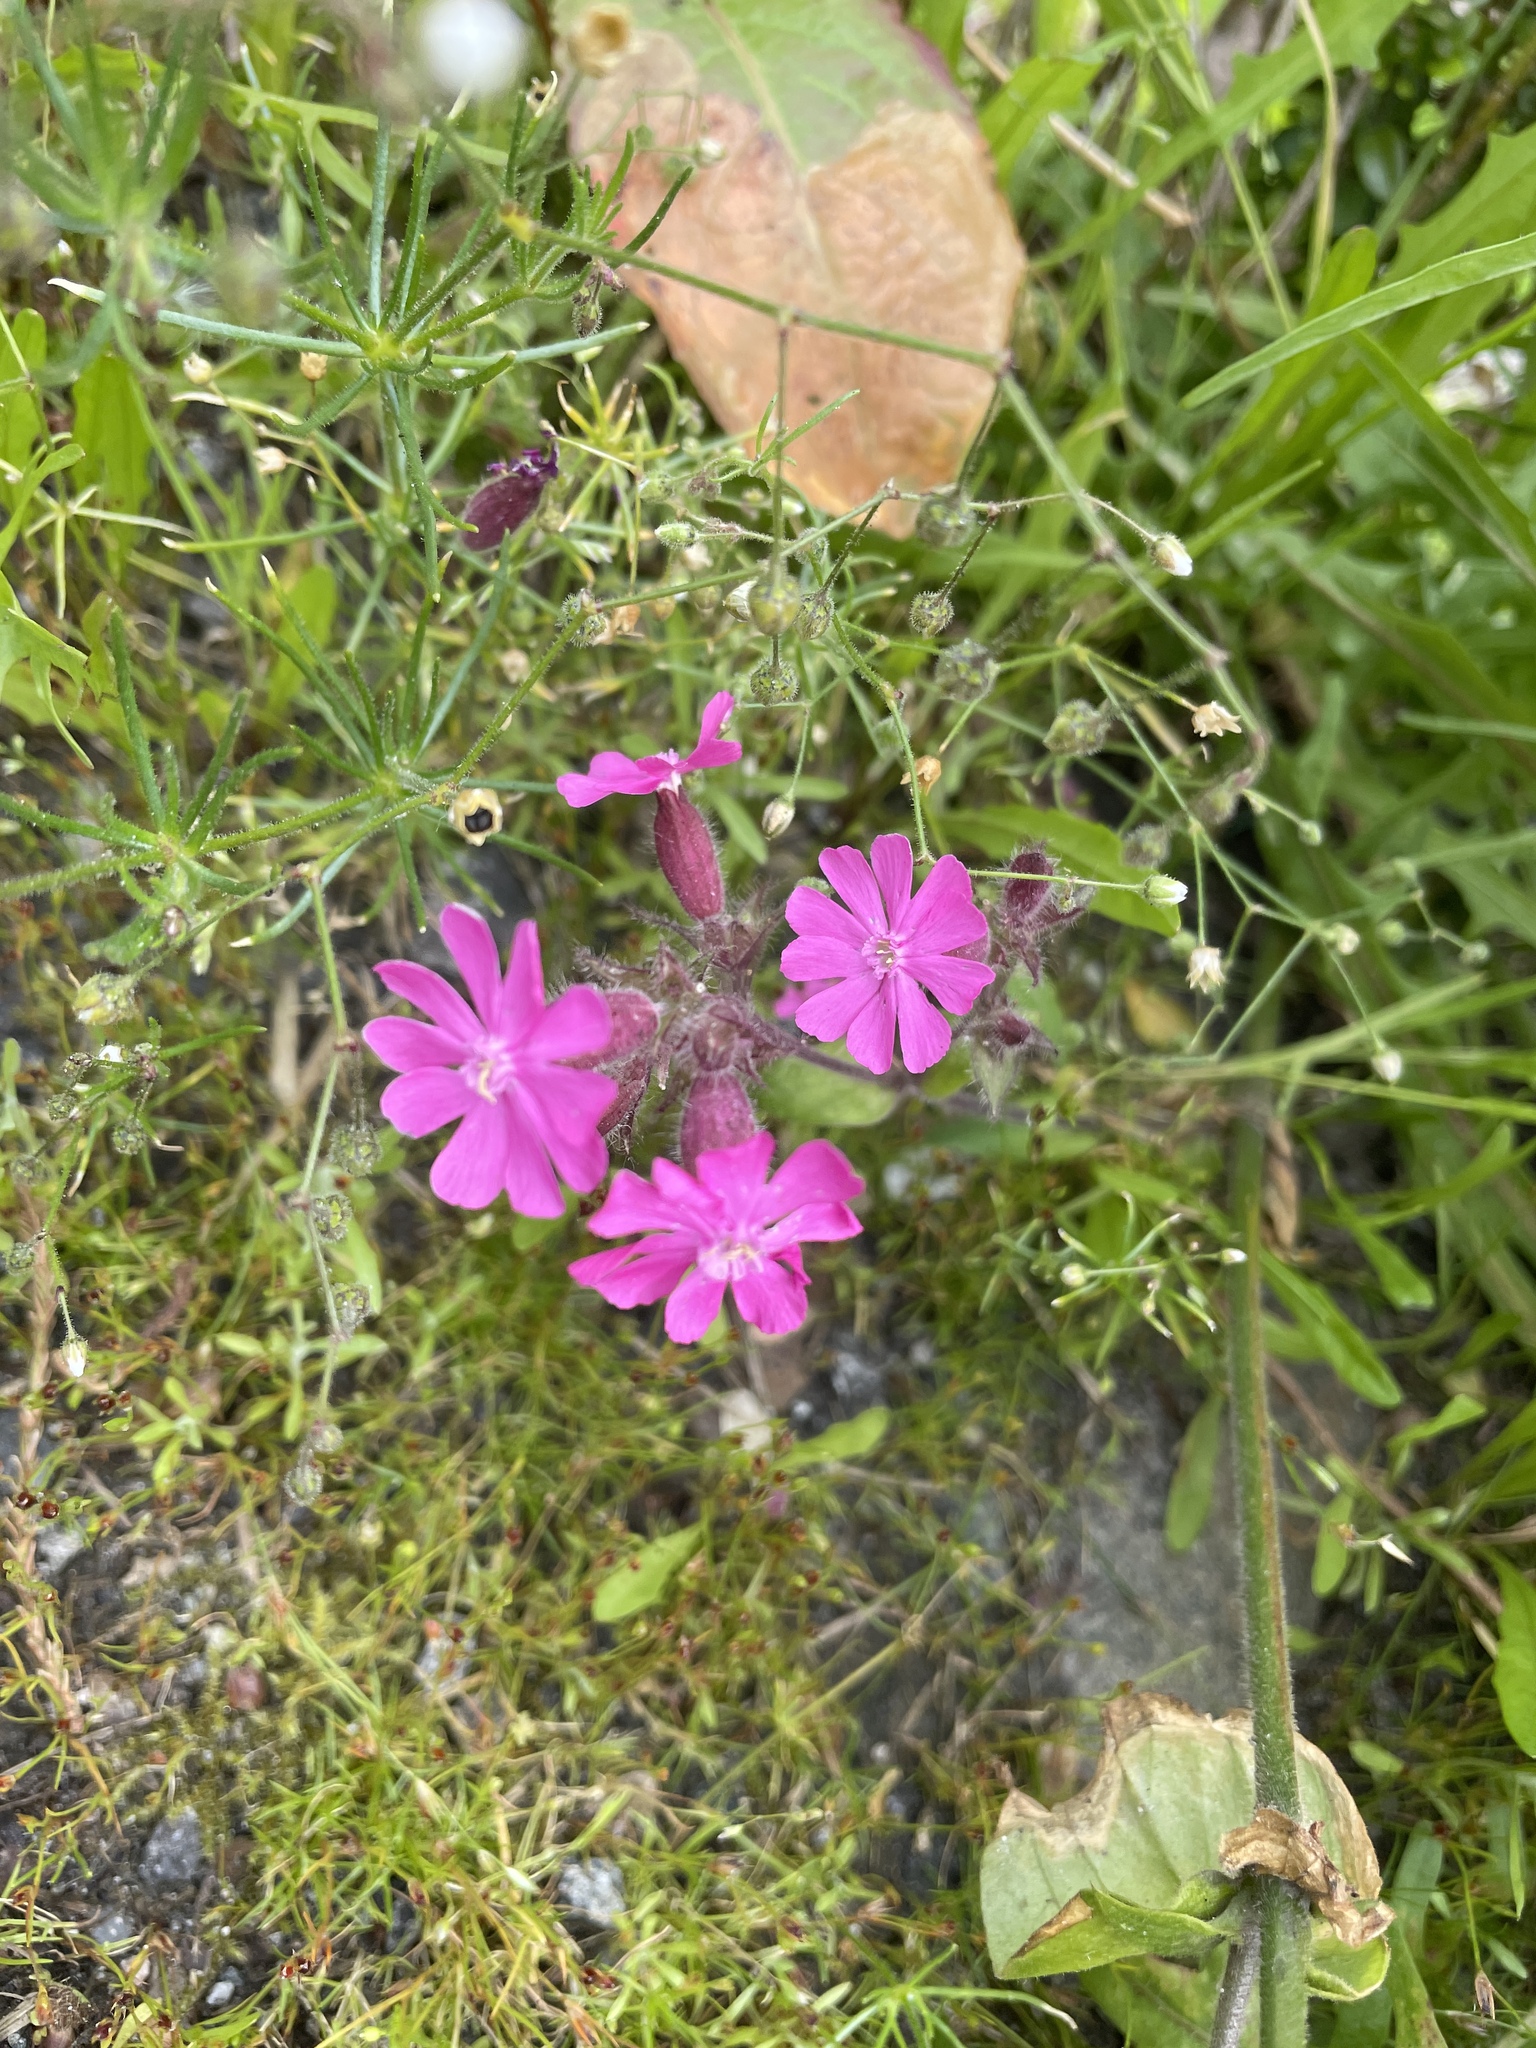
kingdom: Plantae
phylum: Tracheophyta
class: Magnoliopsida
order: Caryophyllales
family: Caryophyllaceae
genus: Silene
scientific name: Silene dioica
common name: Red campion
